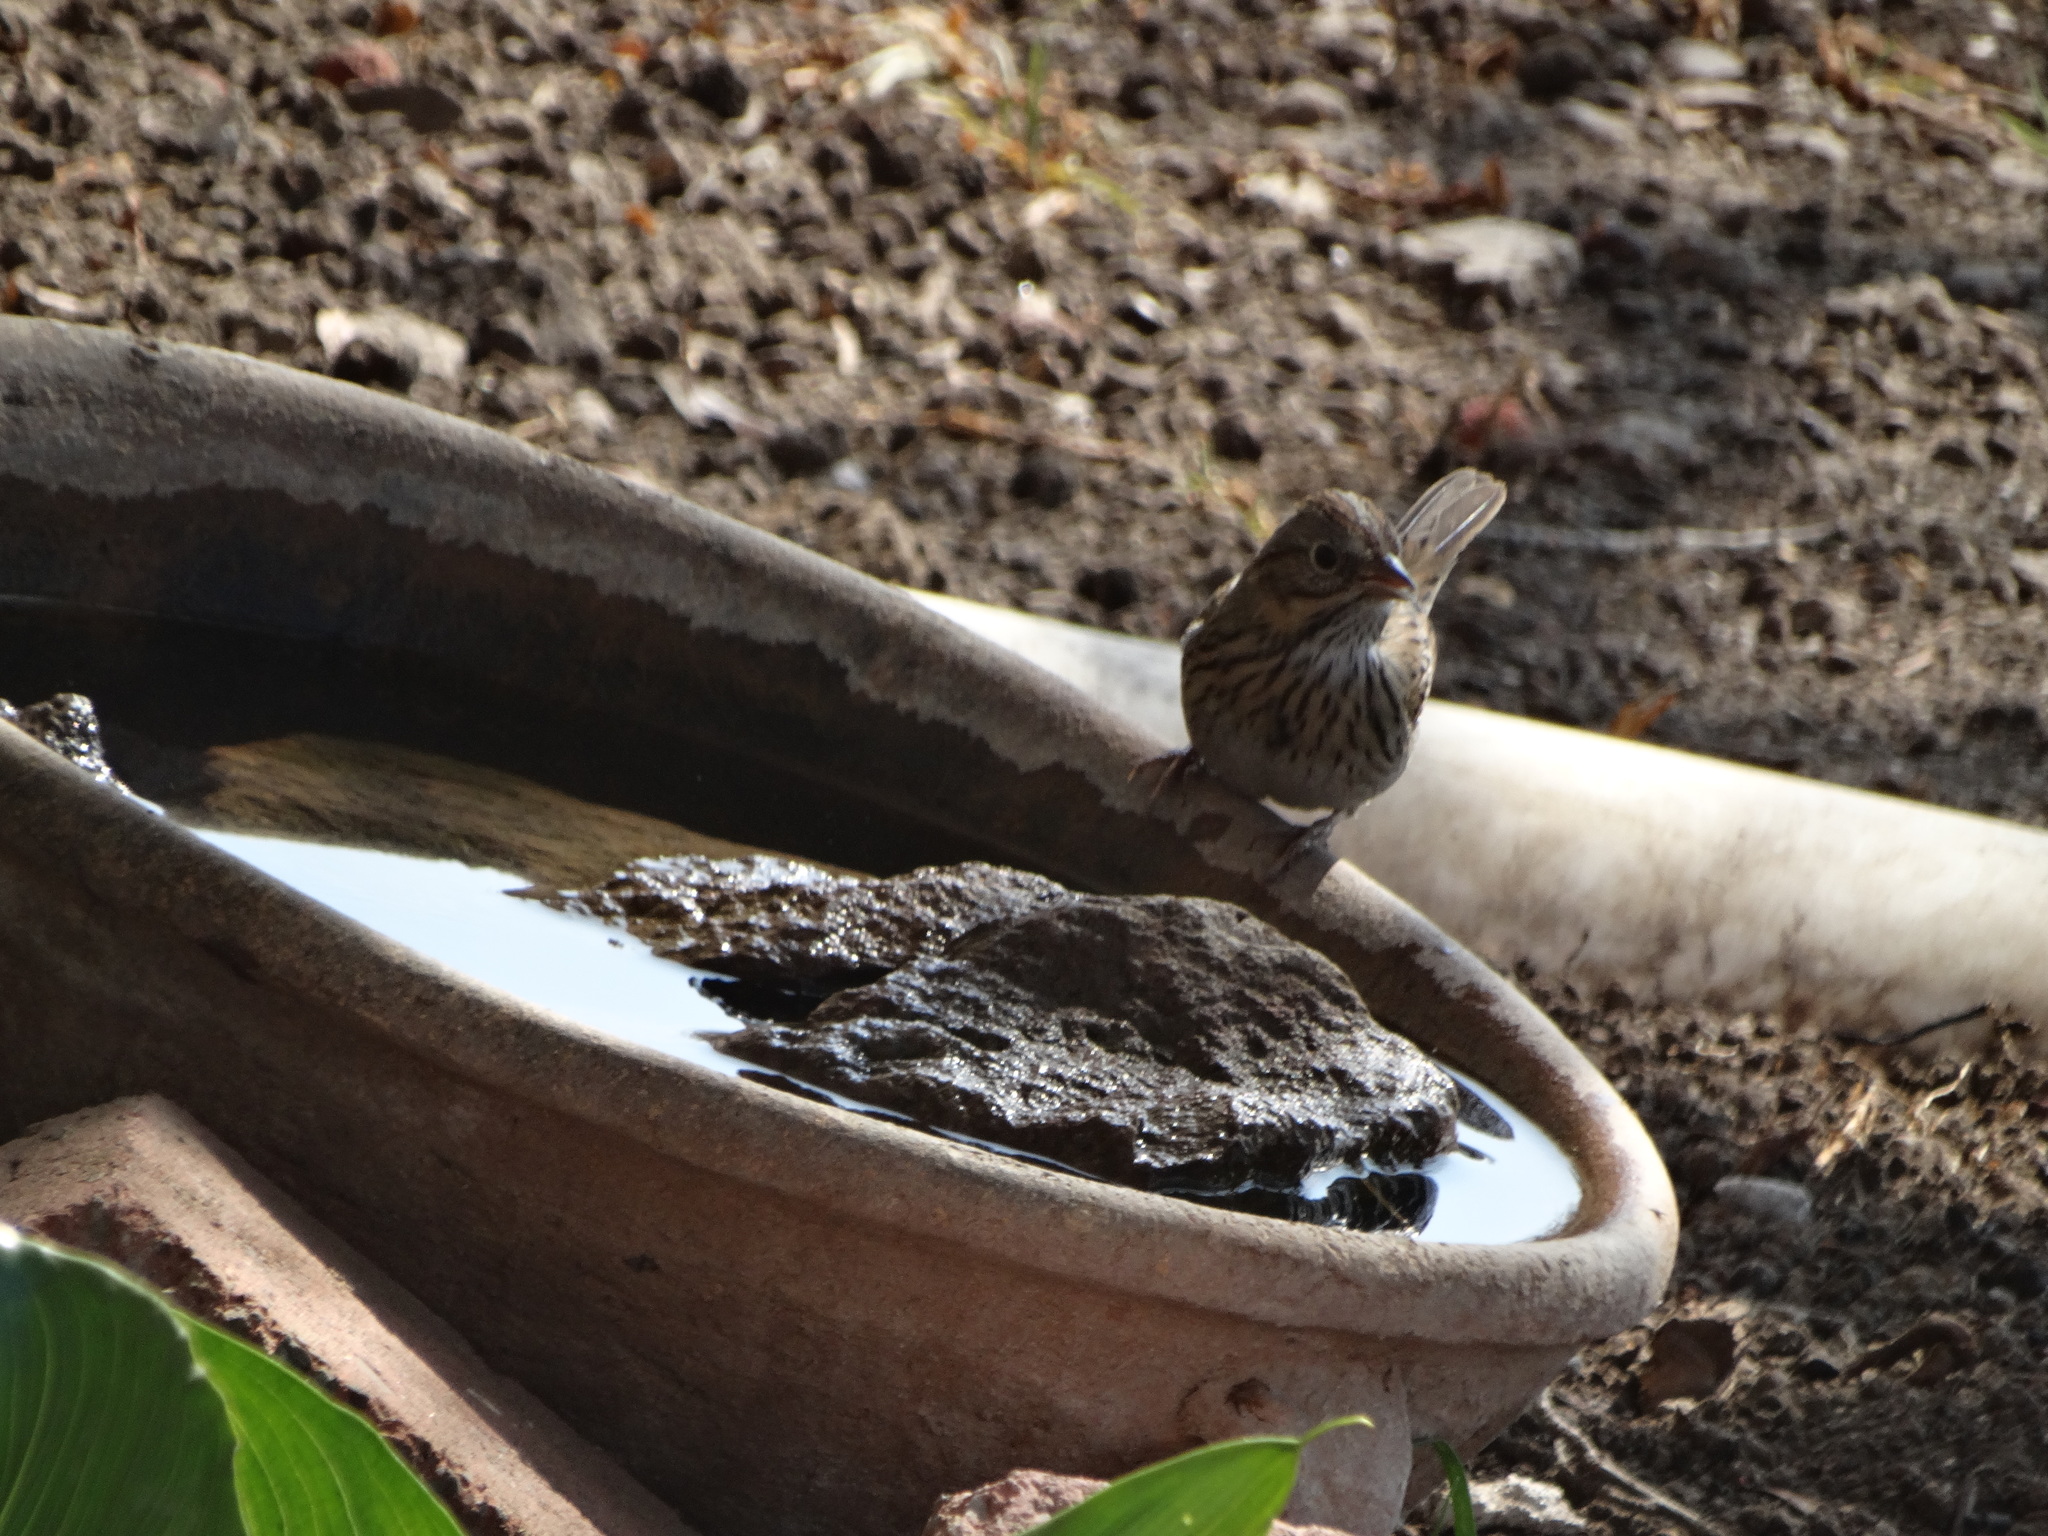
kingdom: Animalia
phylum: Chordata
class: Aves
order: Passeriformes
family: Passerellidae
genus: Melospiza
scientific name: Melospiza lincolnii
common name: Lincoln's sparrow
